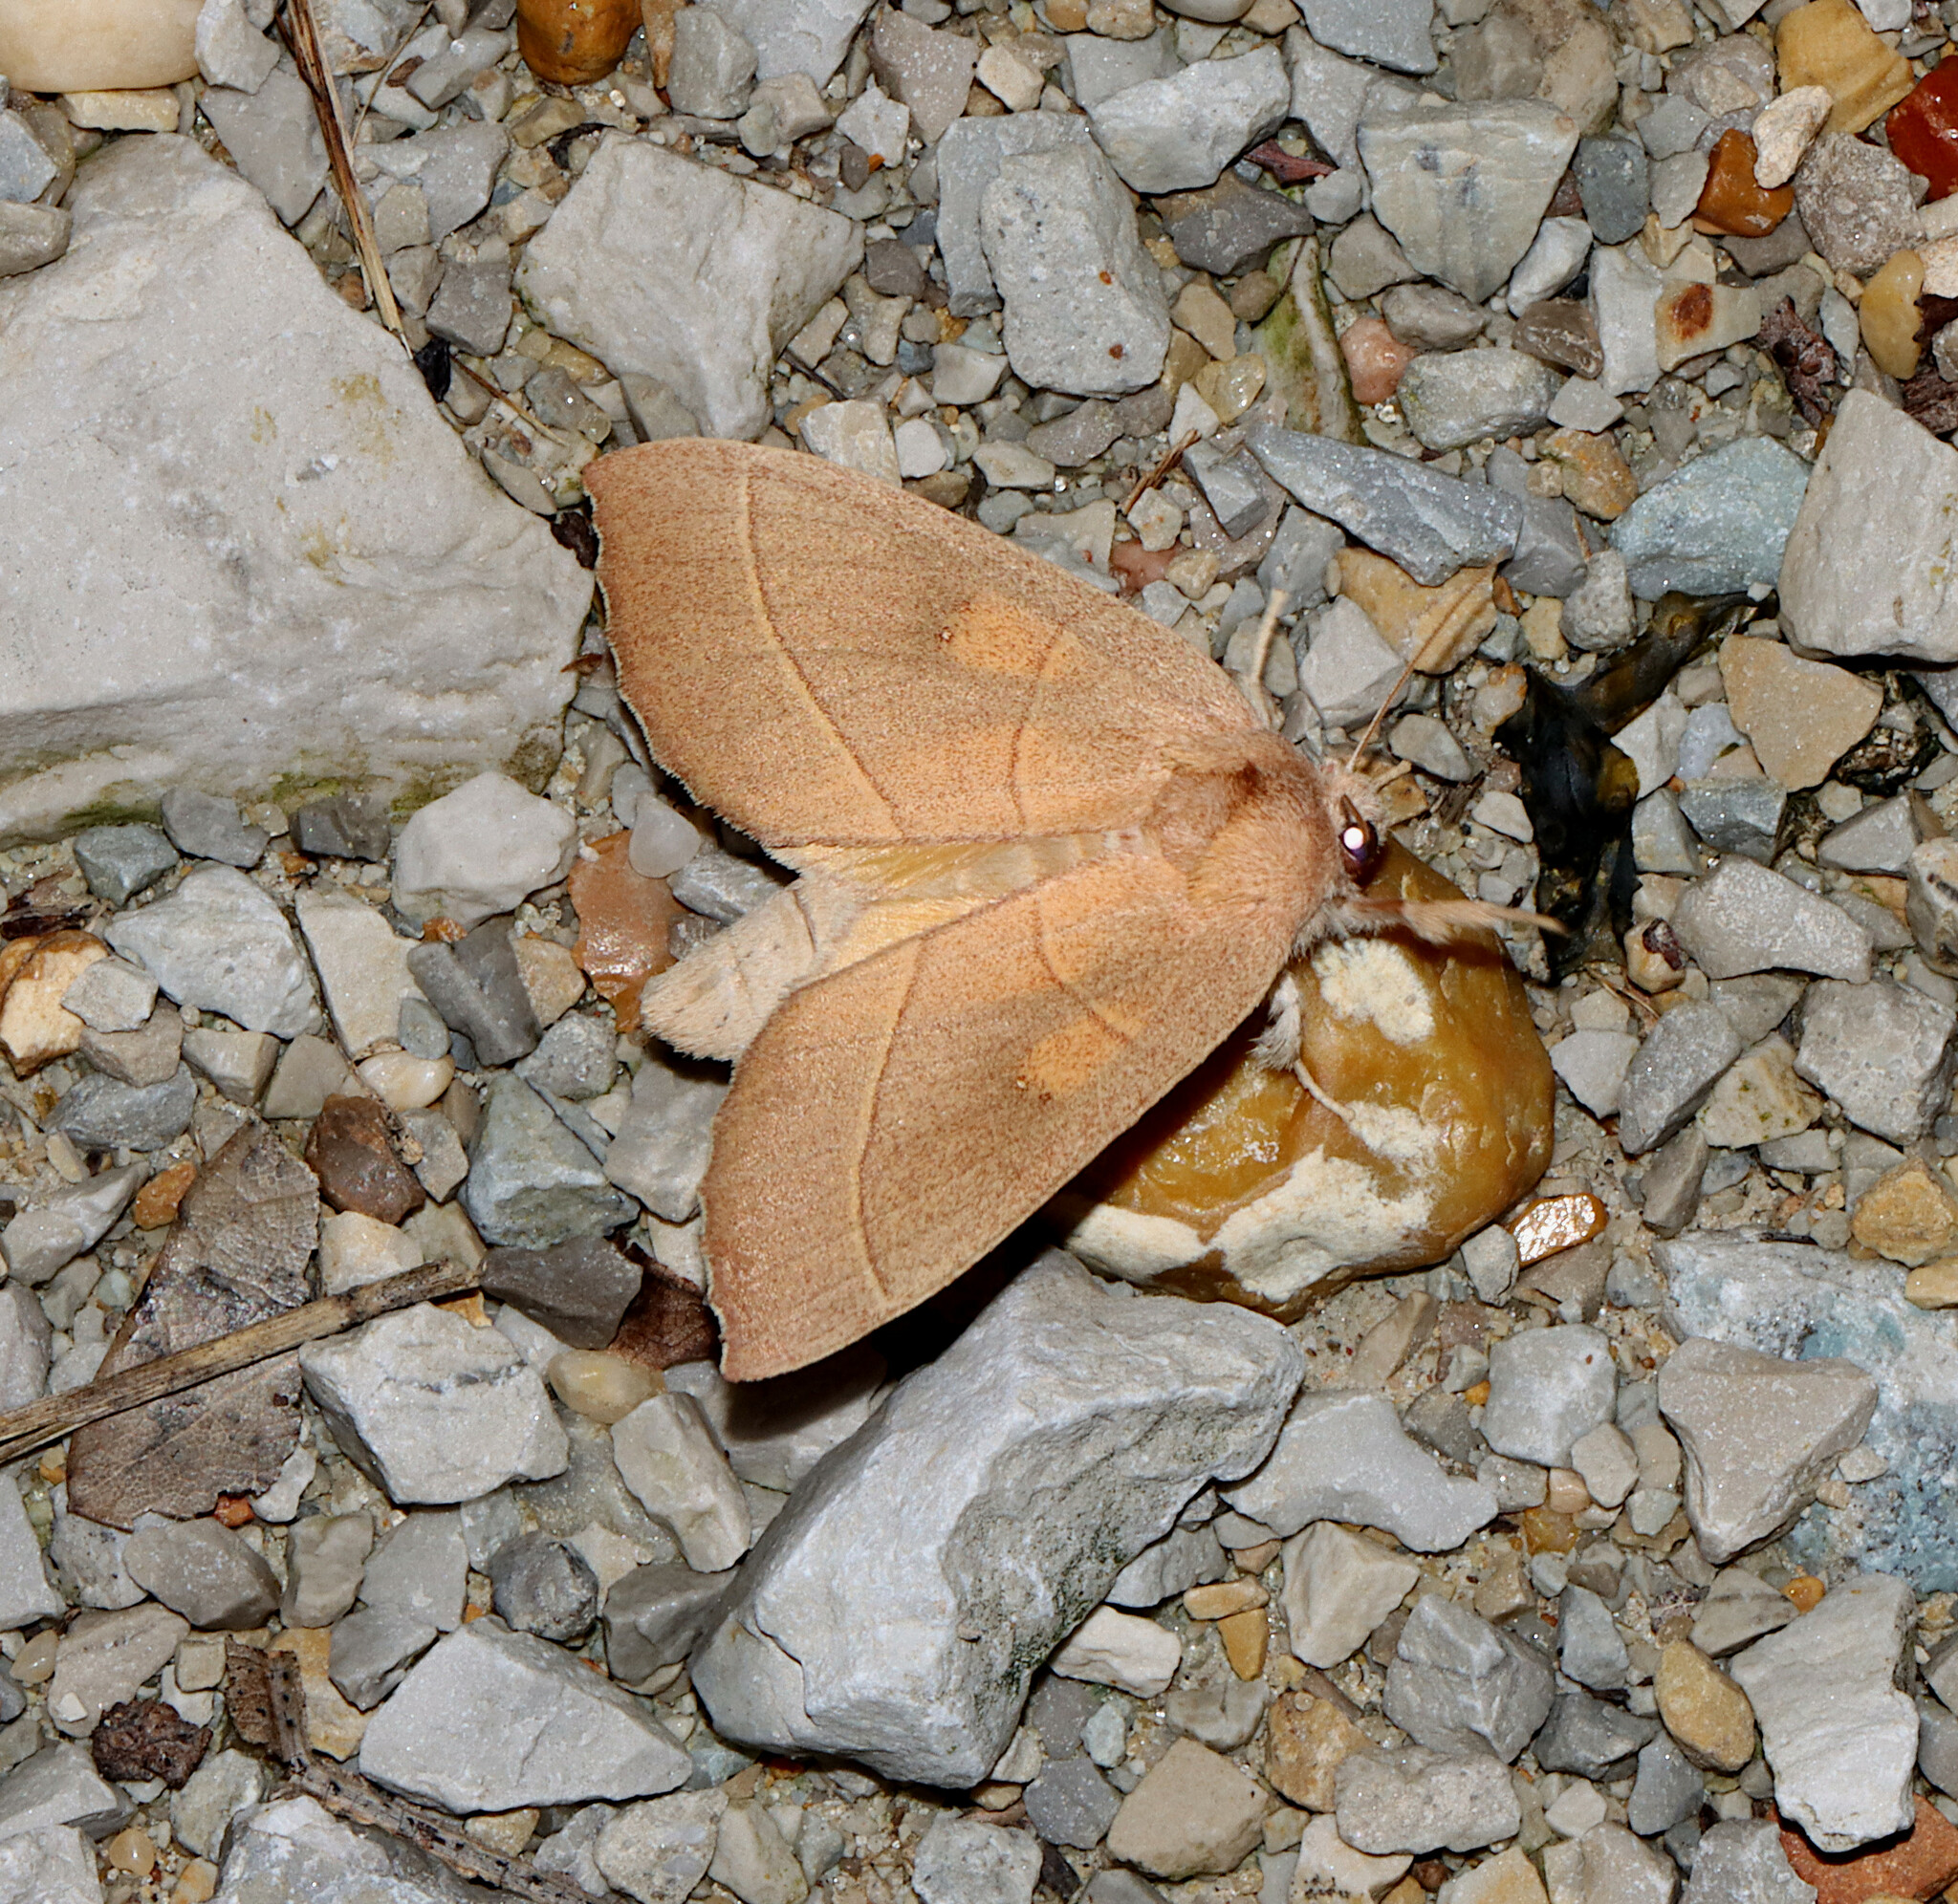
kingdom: Animalia
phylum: Arthropoda
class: Insecta
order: Lepidoptera
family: Notodontidae
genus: Nadata
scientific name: Nadata gibbosa
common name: White-dotted prominent
